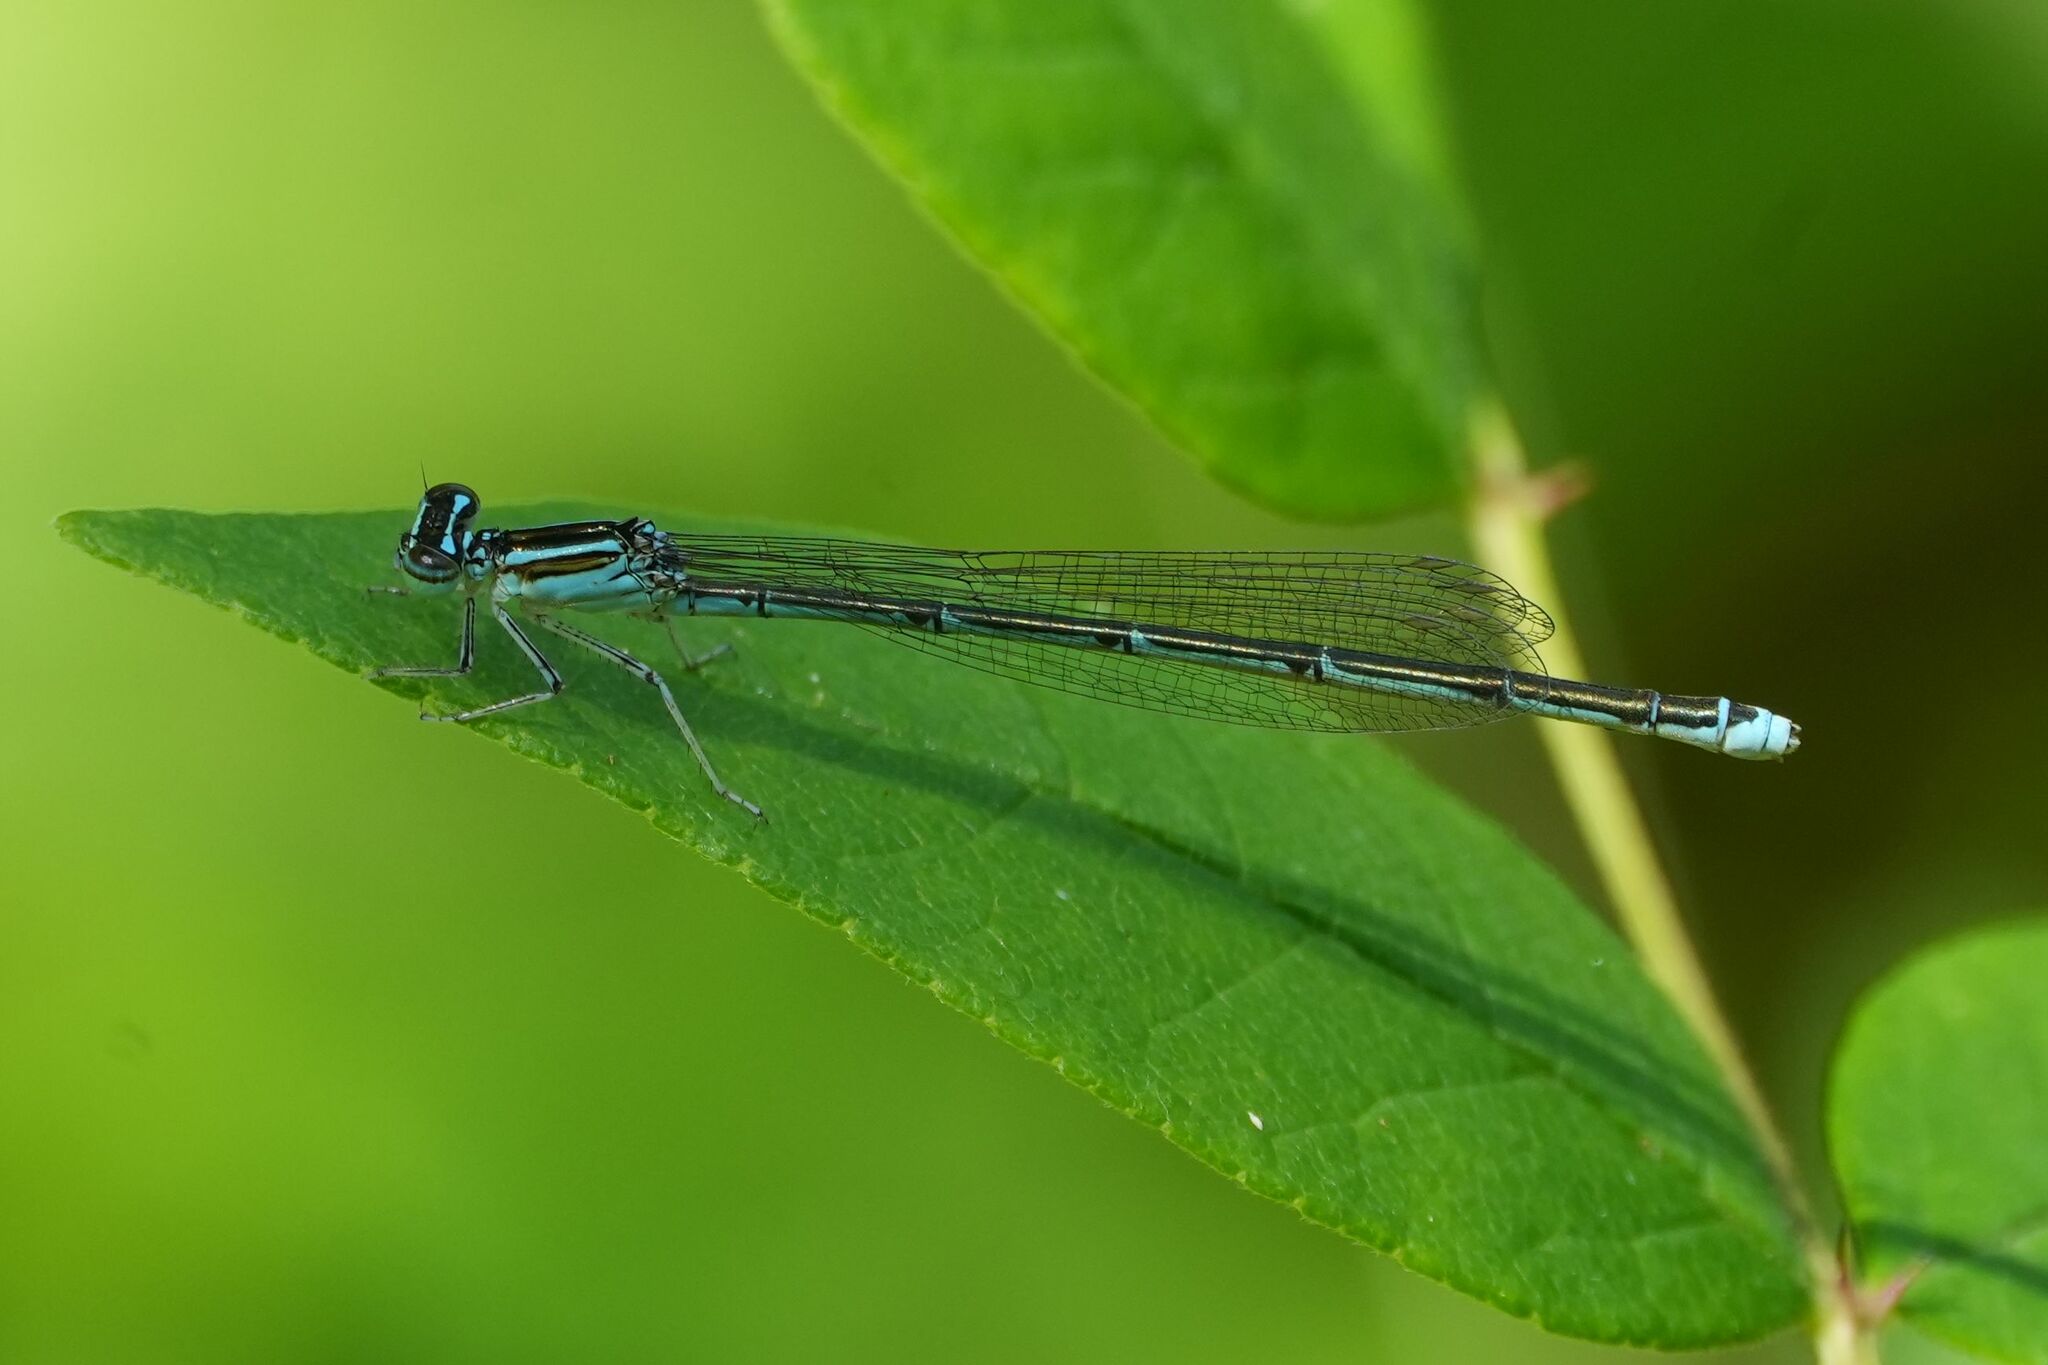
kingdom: Animalia
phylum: Arthropoda
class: Insecta
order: Odonata
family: Coenagrionidae
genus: Enallagma
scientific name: Enallagma exsulans
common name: Stream bluet
